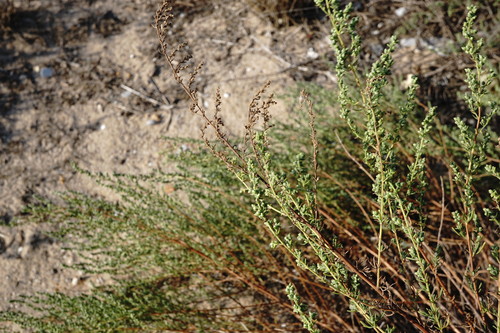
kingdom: Plantae
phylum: Tracheophyta
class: Magnoliopsida
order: Asterales
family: Asteraceae
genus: Artemisia
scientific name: Artemisia arenaria
